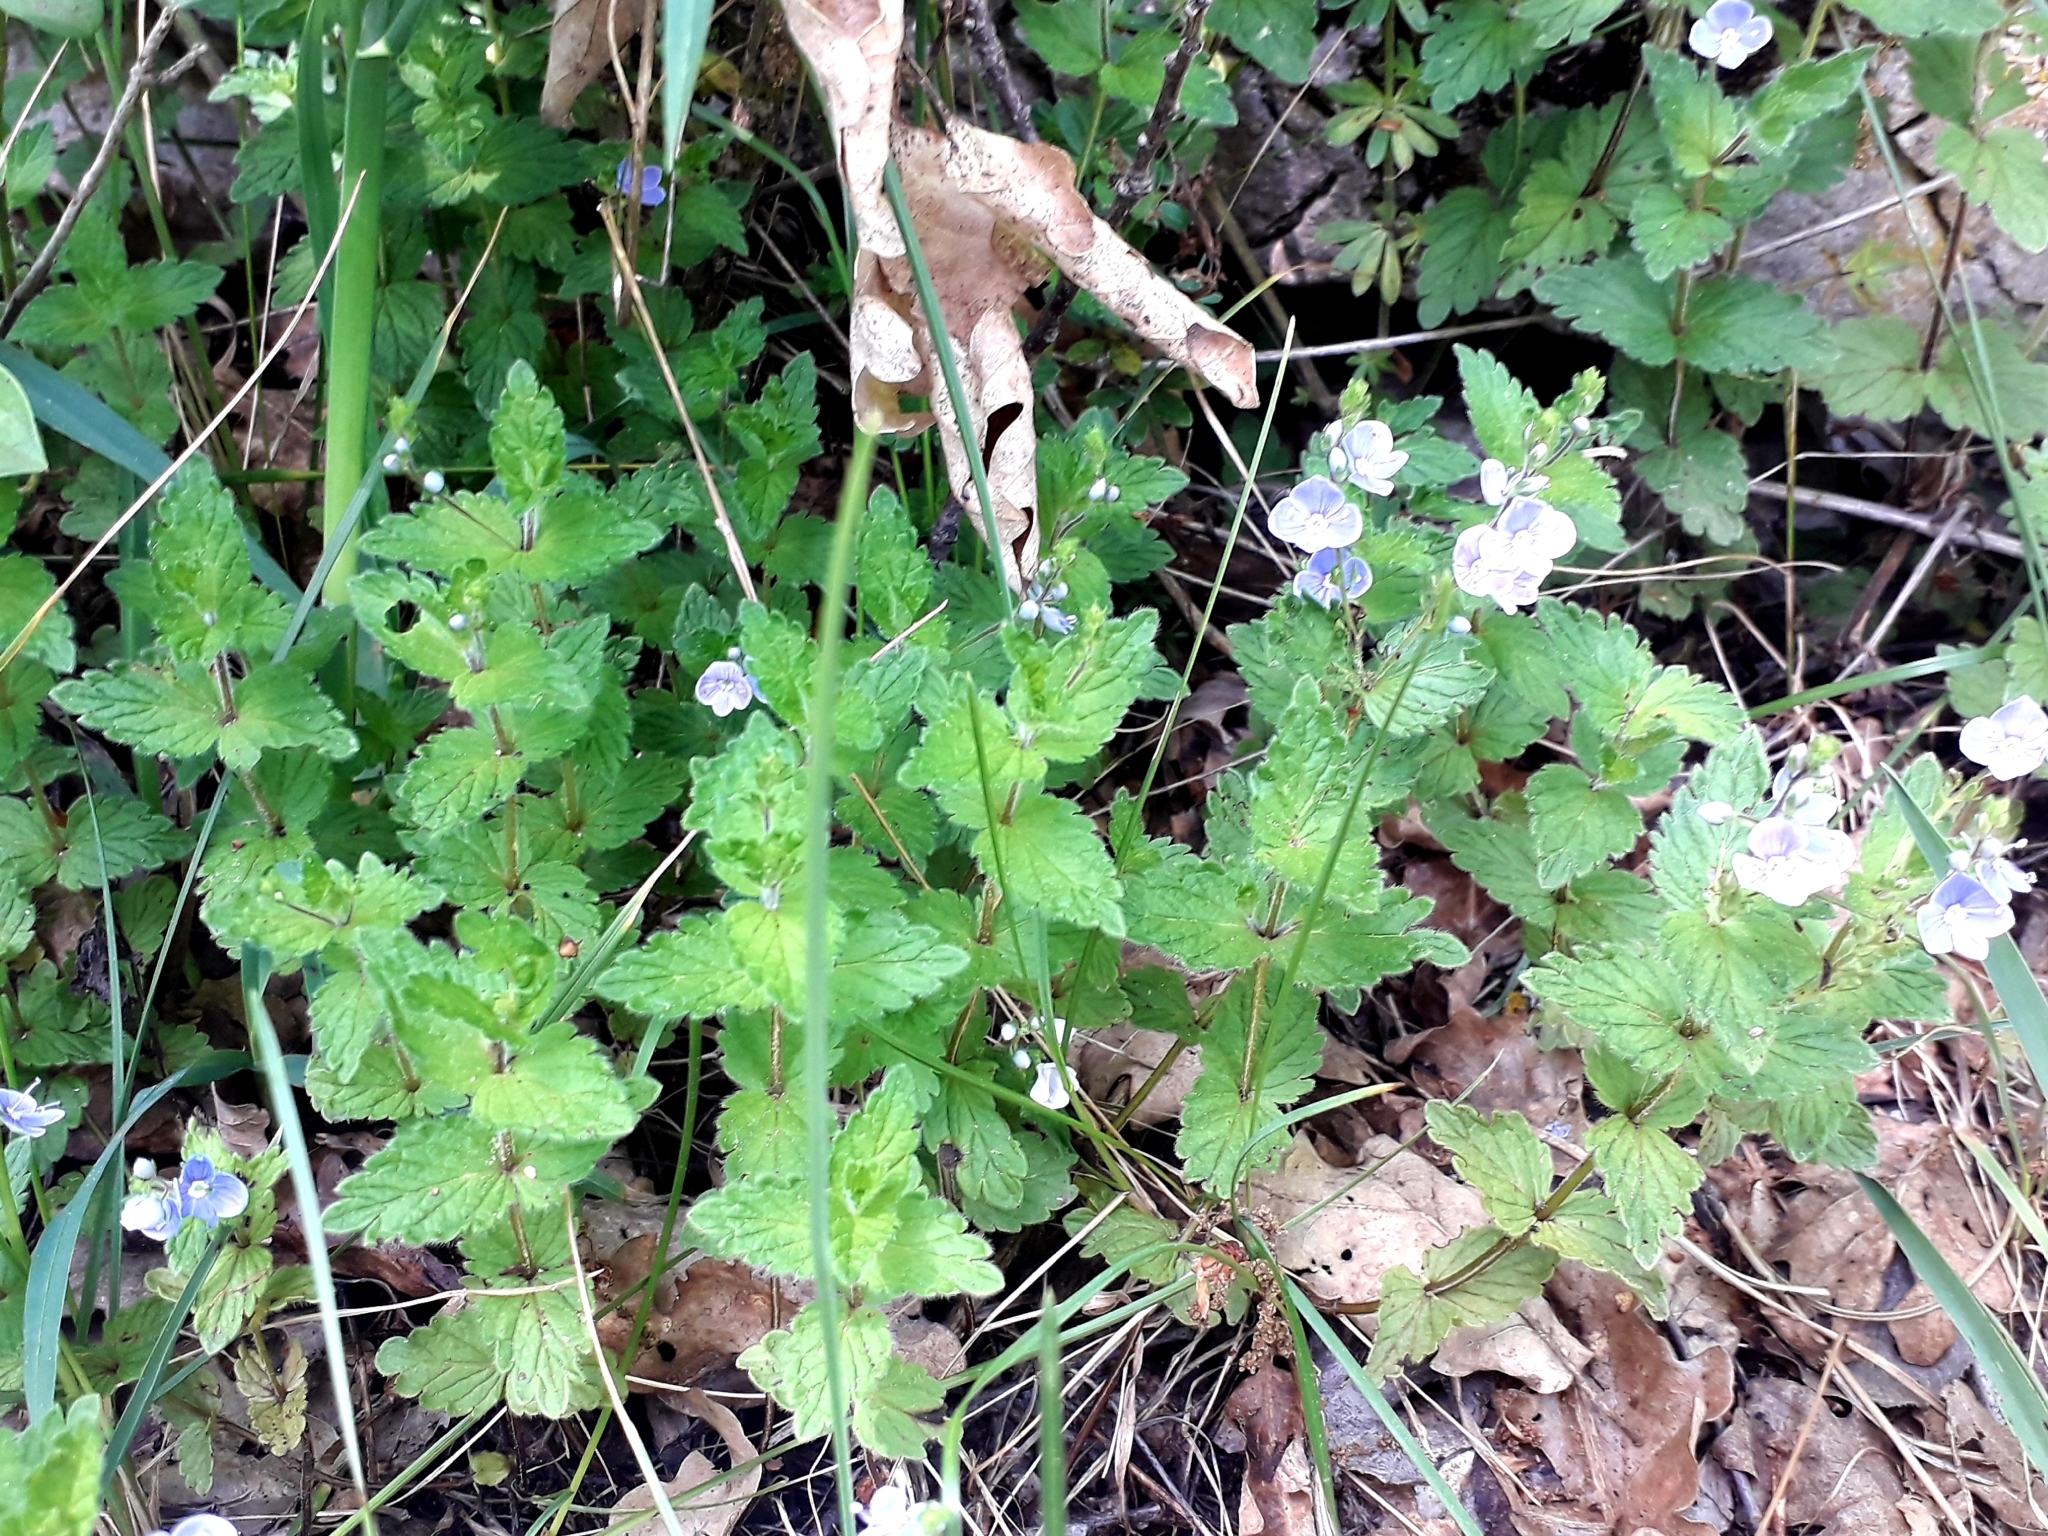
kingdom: Plantae
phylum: Tracheophyta
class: Magnoliopsida
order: Lamiales
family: Plantaginaceae
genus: Veronica
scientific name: Veronica chamaedrys
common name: Germander speedwell
